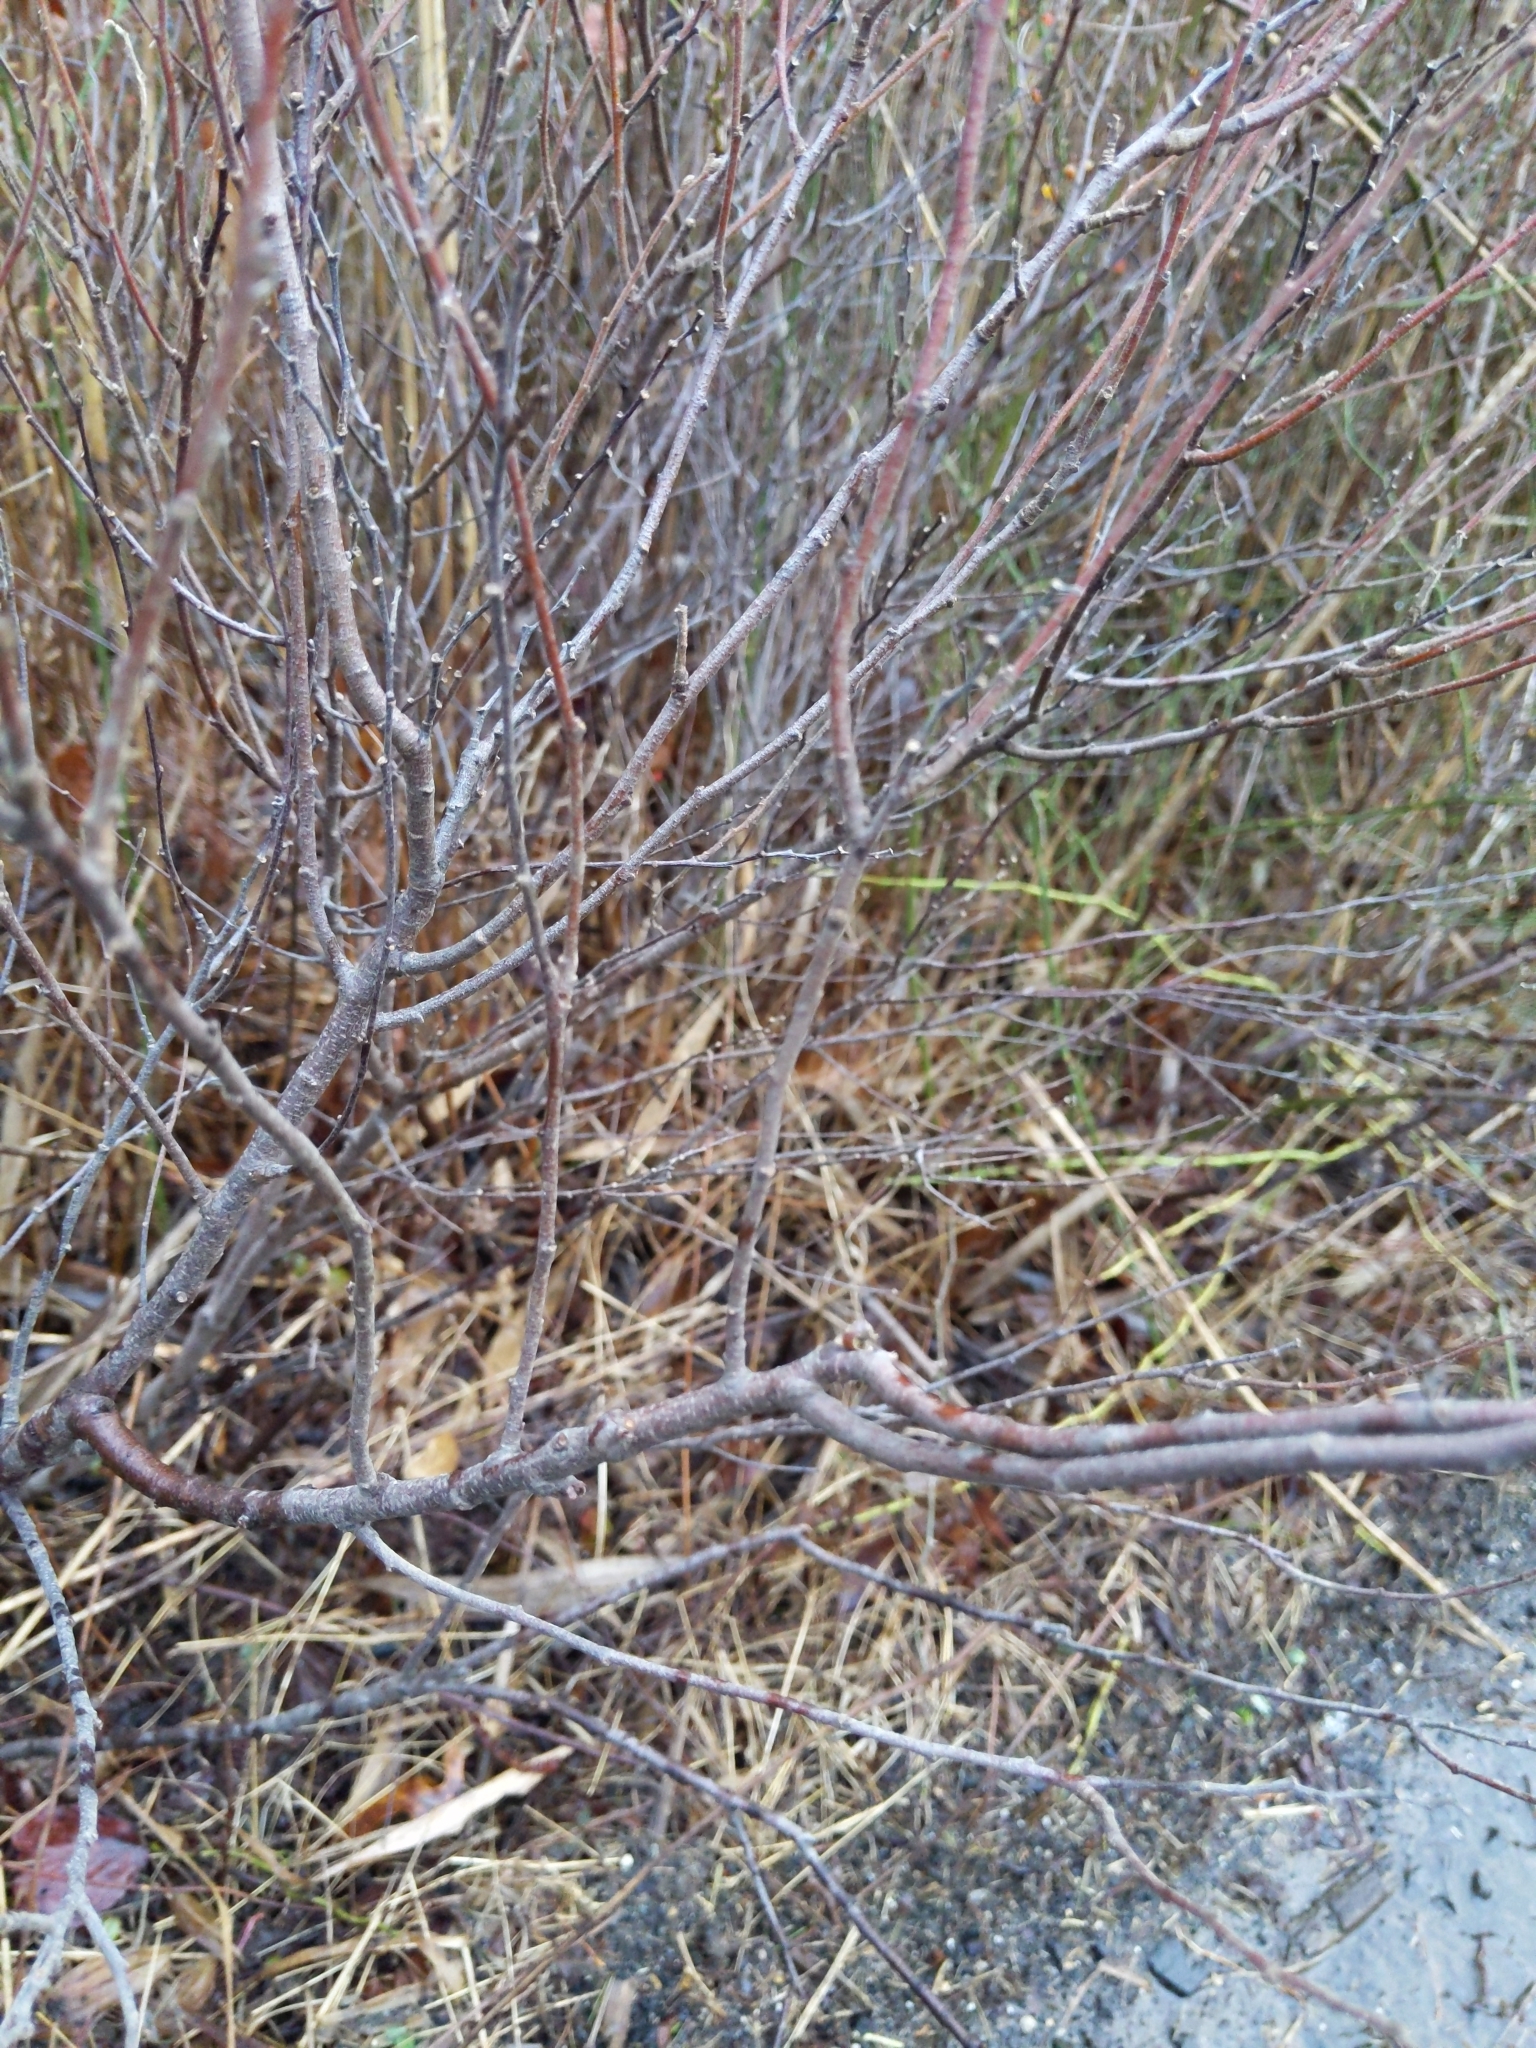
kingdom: Plantae
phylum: Tracheophyta
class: Magnoliopsida
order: Fagales
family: Myricaceae
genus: Comptonia
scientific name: Comptonia peregrina
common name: Sweet-fern
